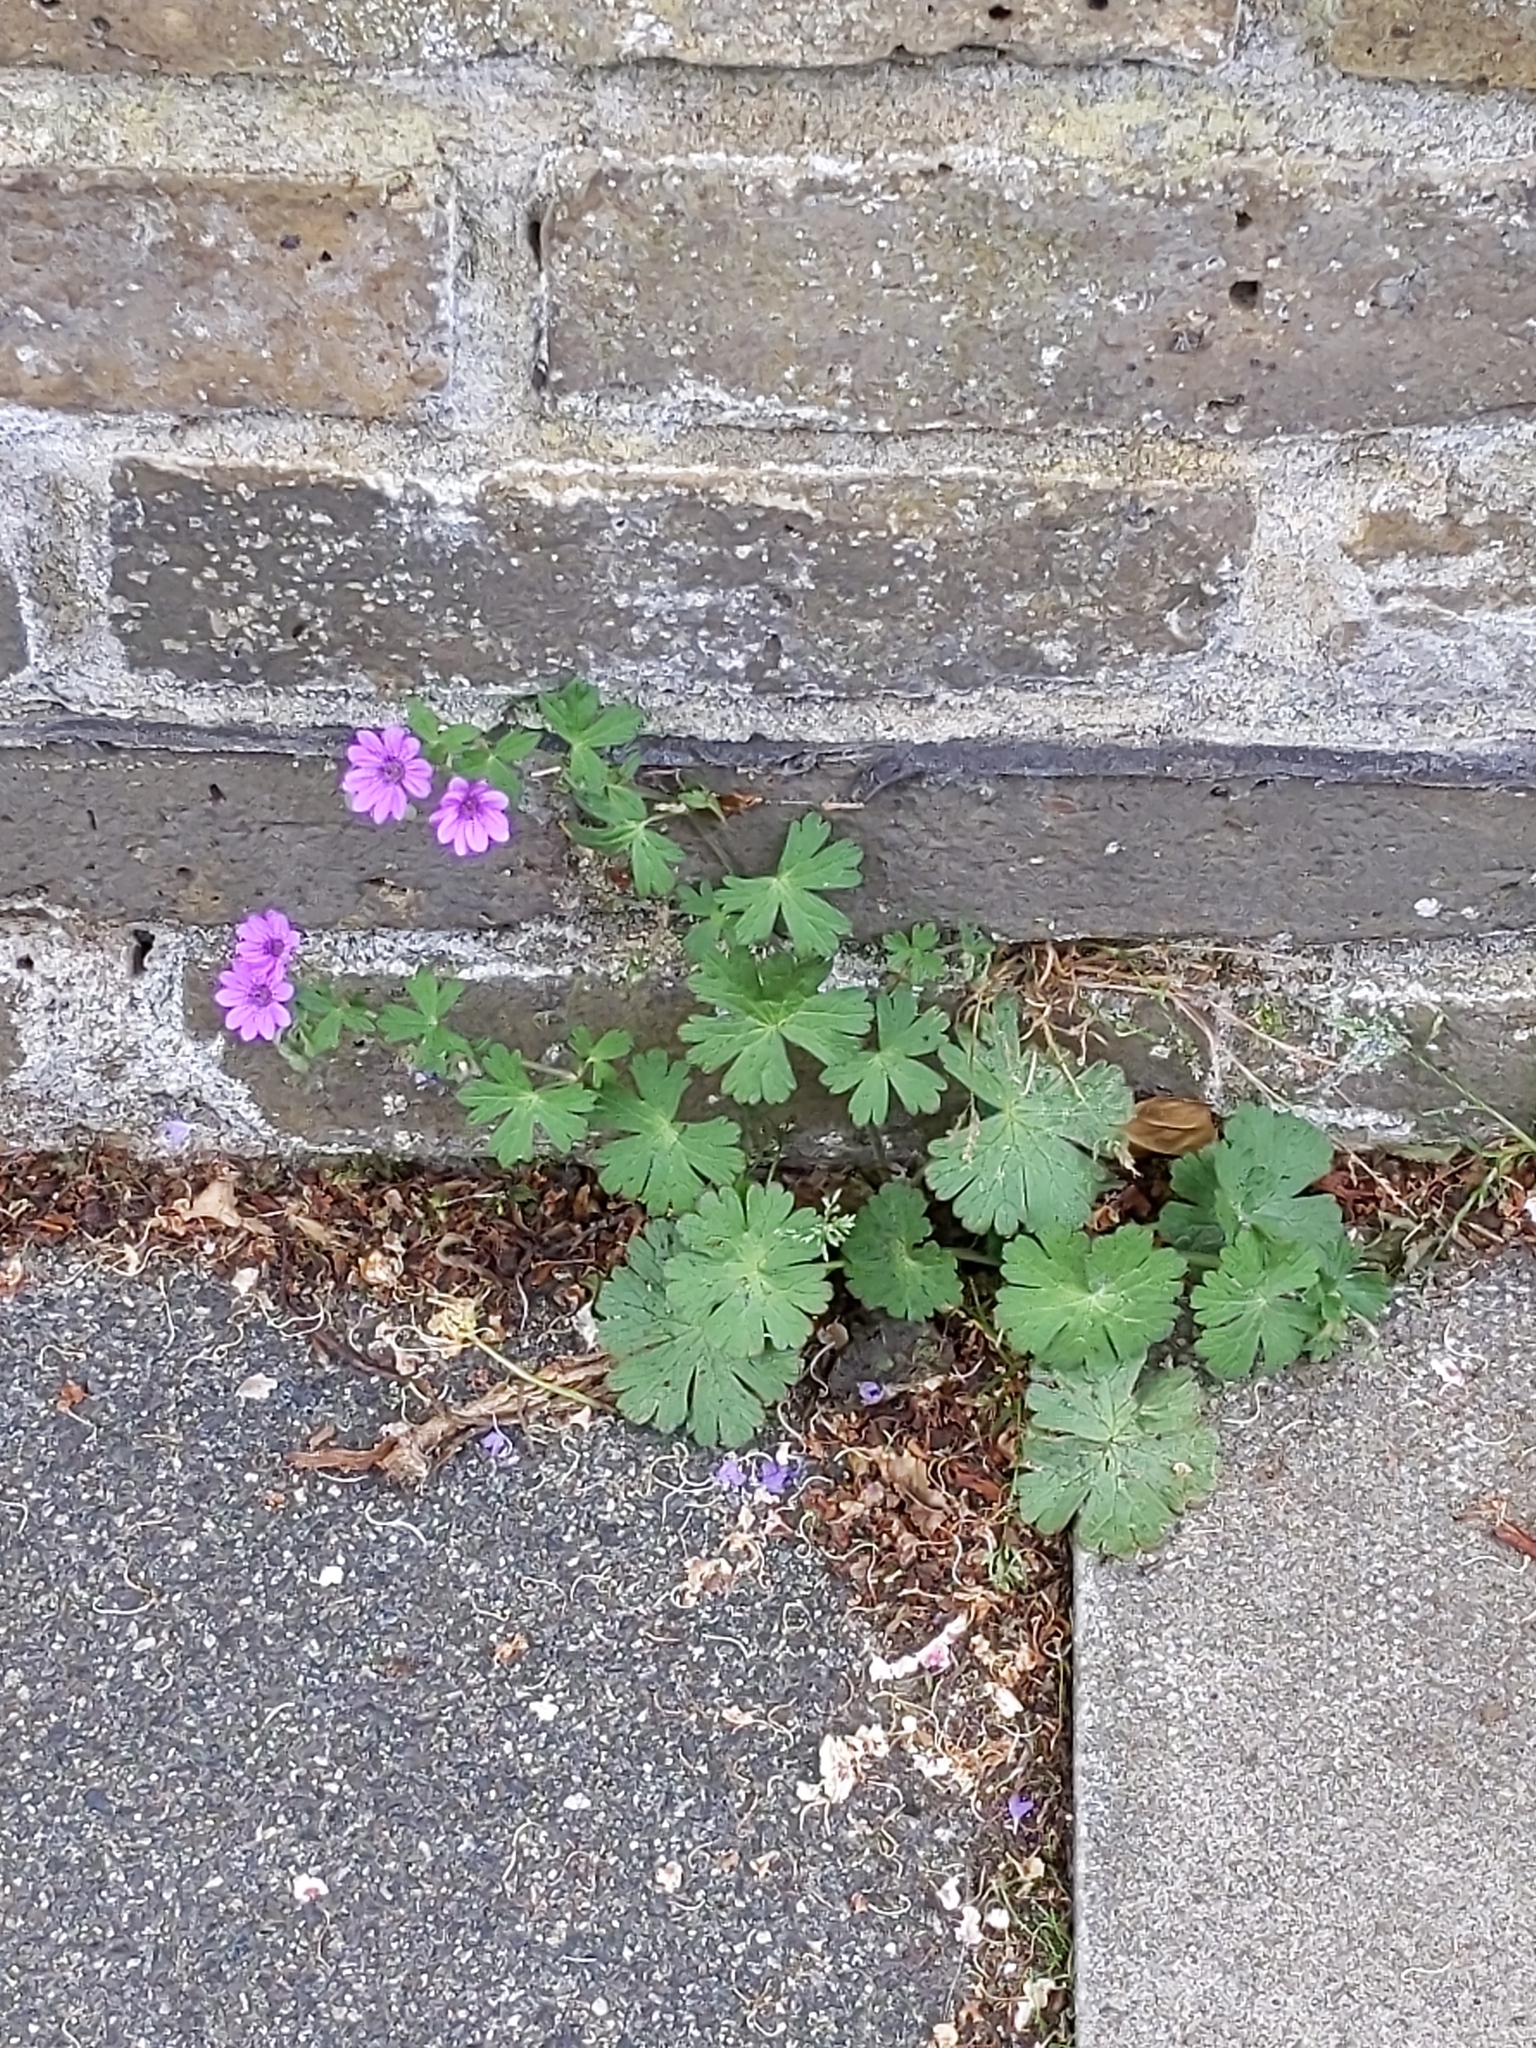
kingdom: Plantae
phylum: Tracheophyta
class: Magnoliopsida
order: Geraniales
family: Geraniaceae
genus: Geranium
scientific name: Geranium pyrenaicum
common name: Hedgerow crane's-bill
